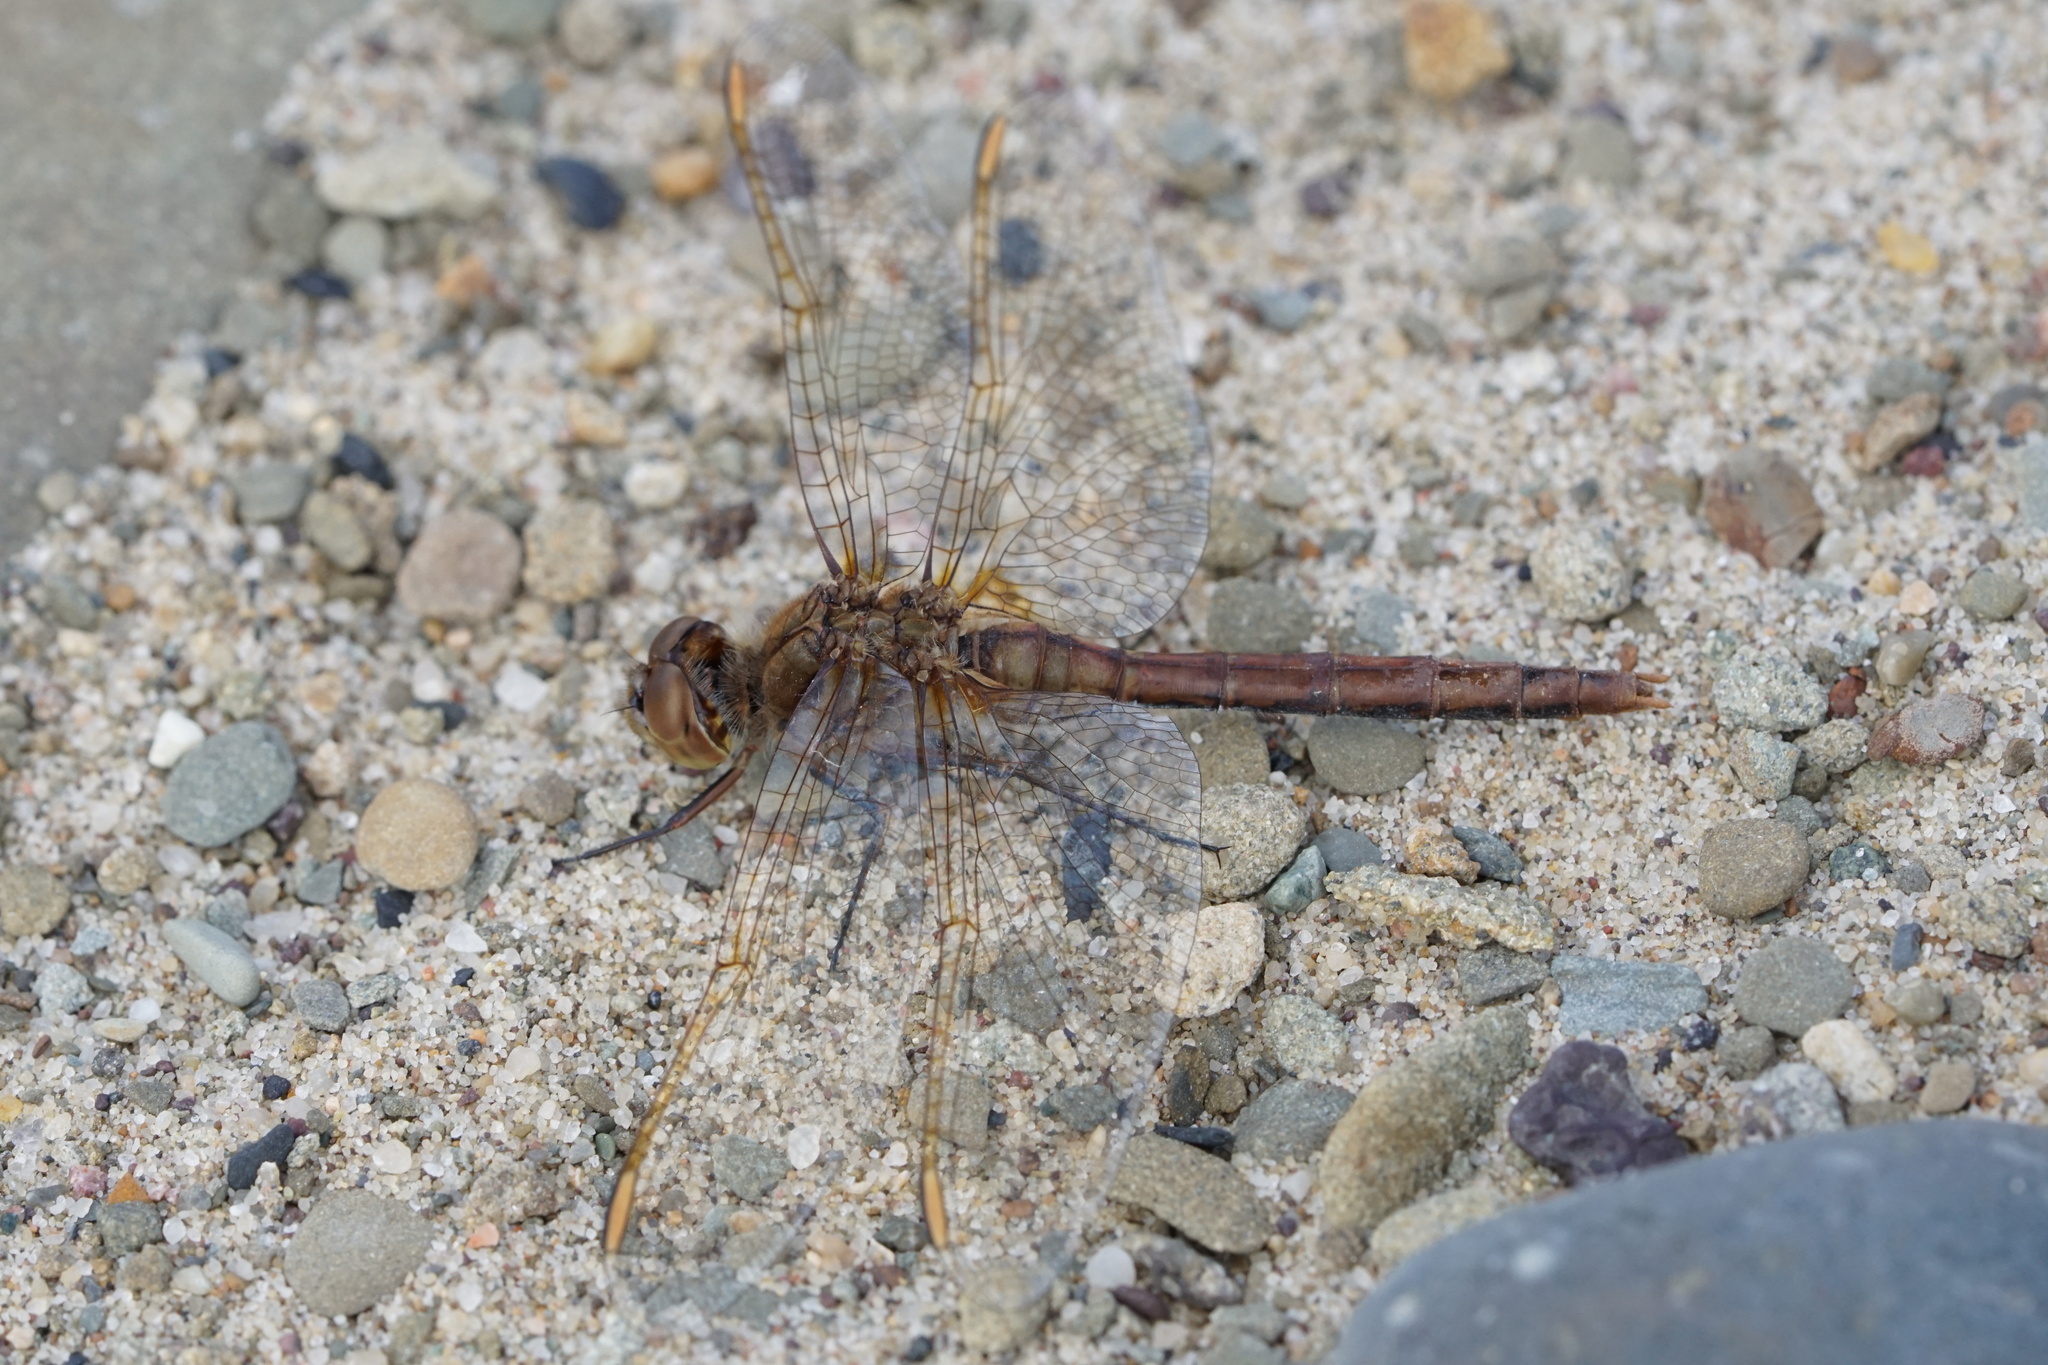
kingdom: Animalia
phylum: Arthropoda
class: Insecta
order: Odonata
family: Libellulidae
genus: Sympetrum
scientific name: Sympetrum costiferum
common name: Saffron-winged meadowhawk
